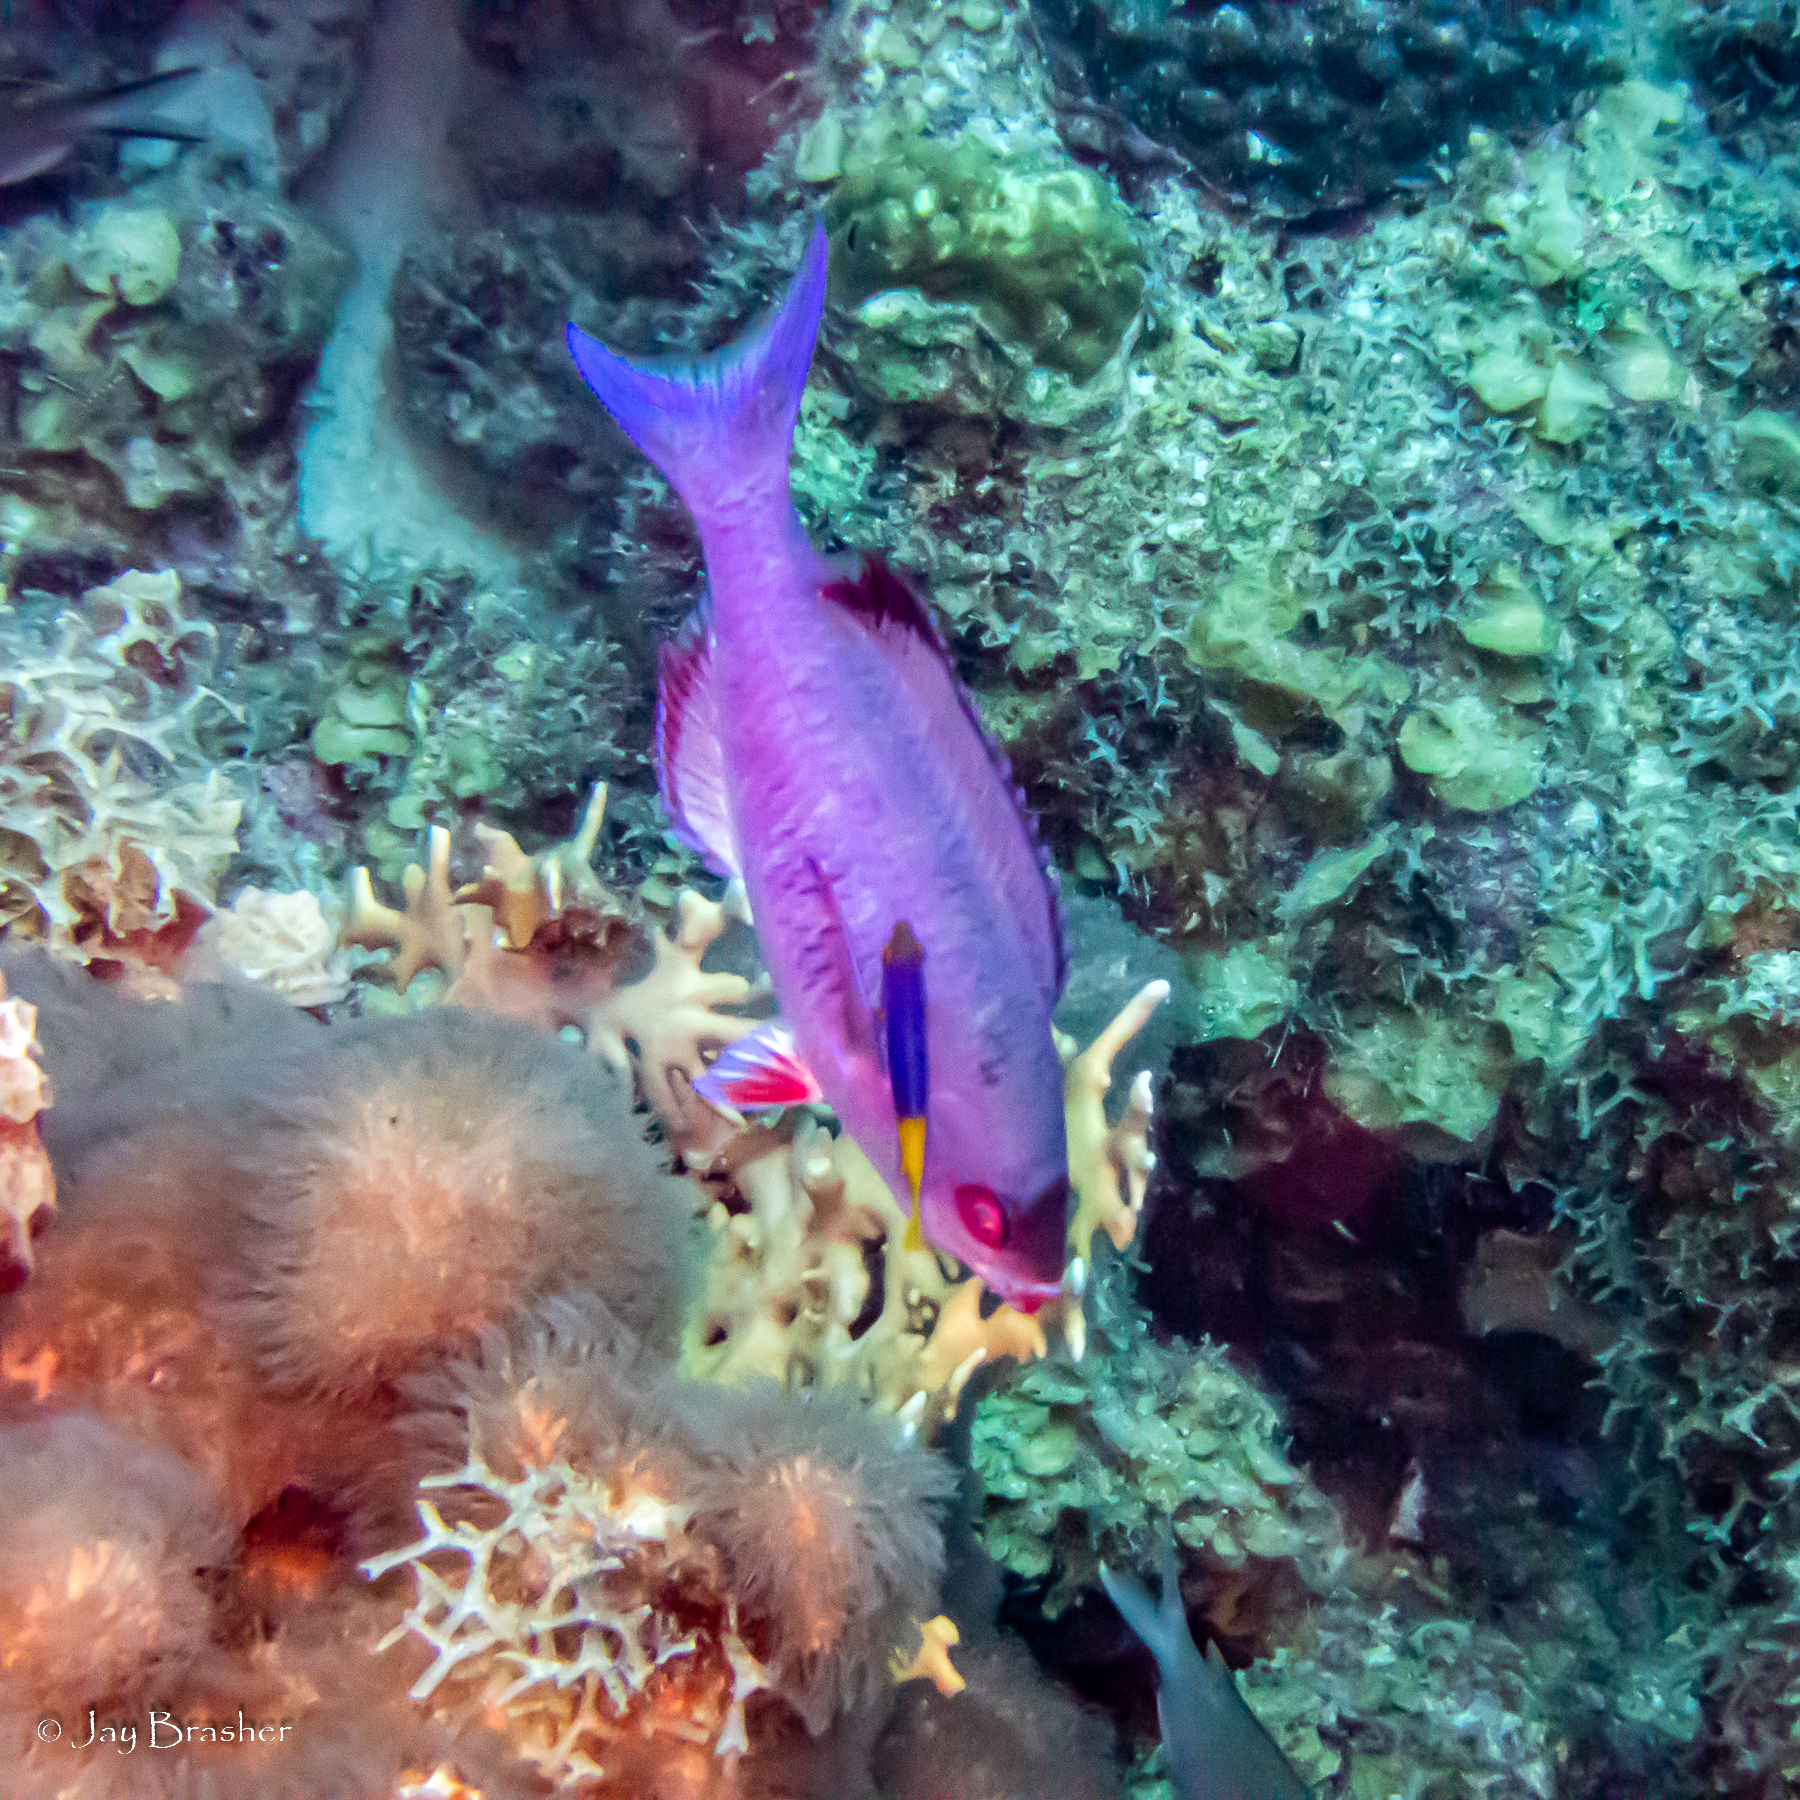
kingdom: Animalia
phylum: Chordata
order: Perciformes
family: Labridae
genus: Bodianus
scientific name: Bodianus
